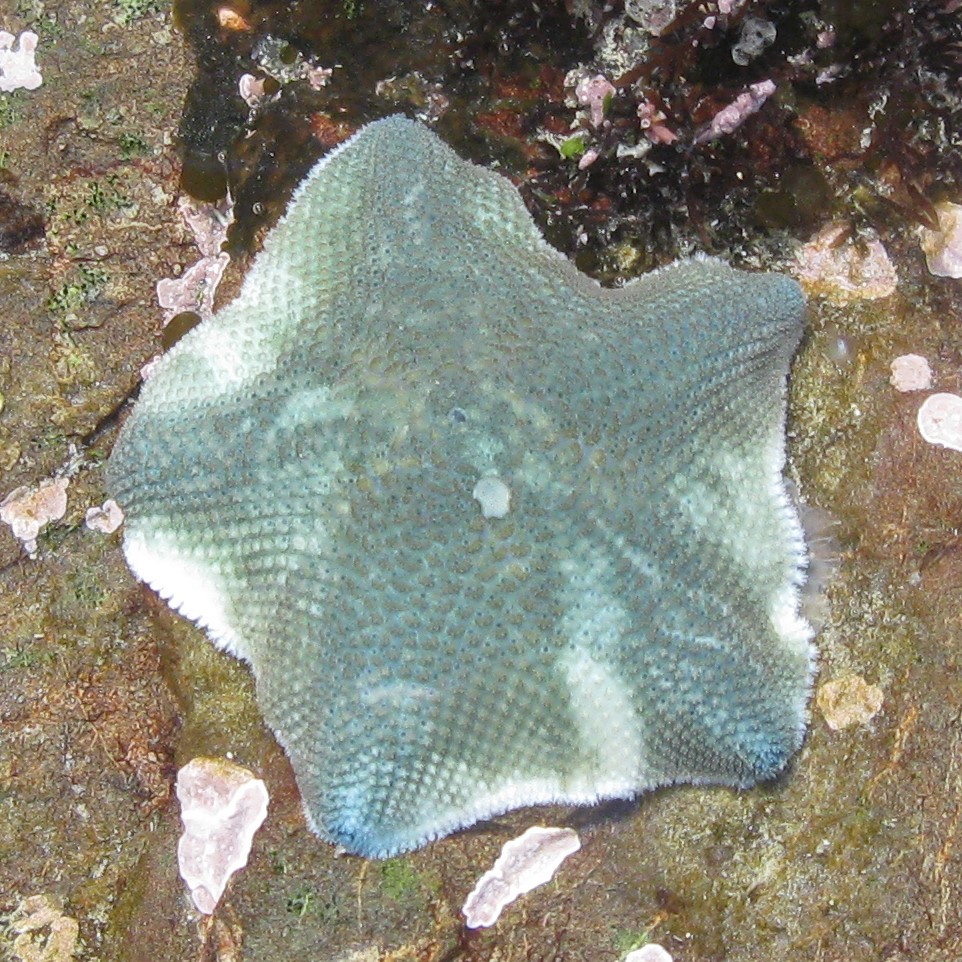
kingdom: Animalia
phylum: Echinodermata
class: Asteroidea
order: Valvatida
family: Asterinidae
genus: Patiriella
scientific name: Patiriella regularis
